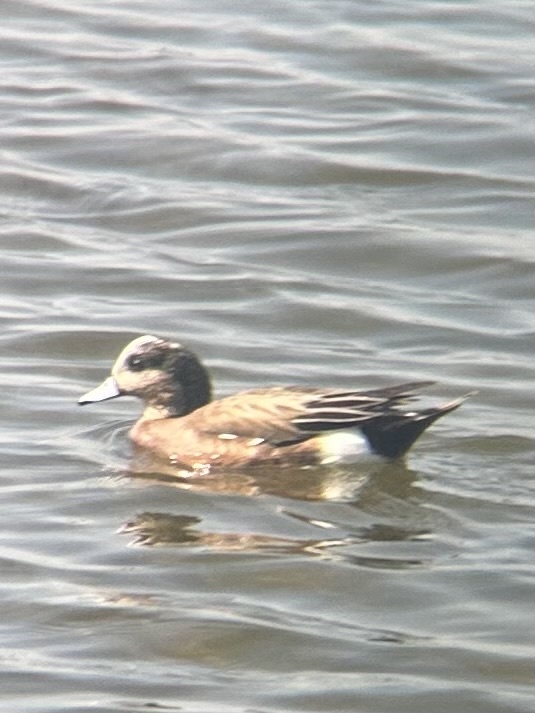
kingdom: Animalia
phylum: Chordata
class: Aves
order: Anseriformes
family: Anatidae
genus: Mareca
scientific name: Mareca americana
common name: American wigeon
